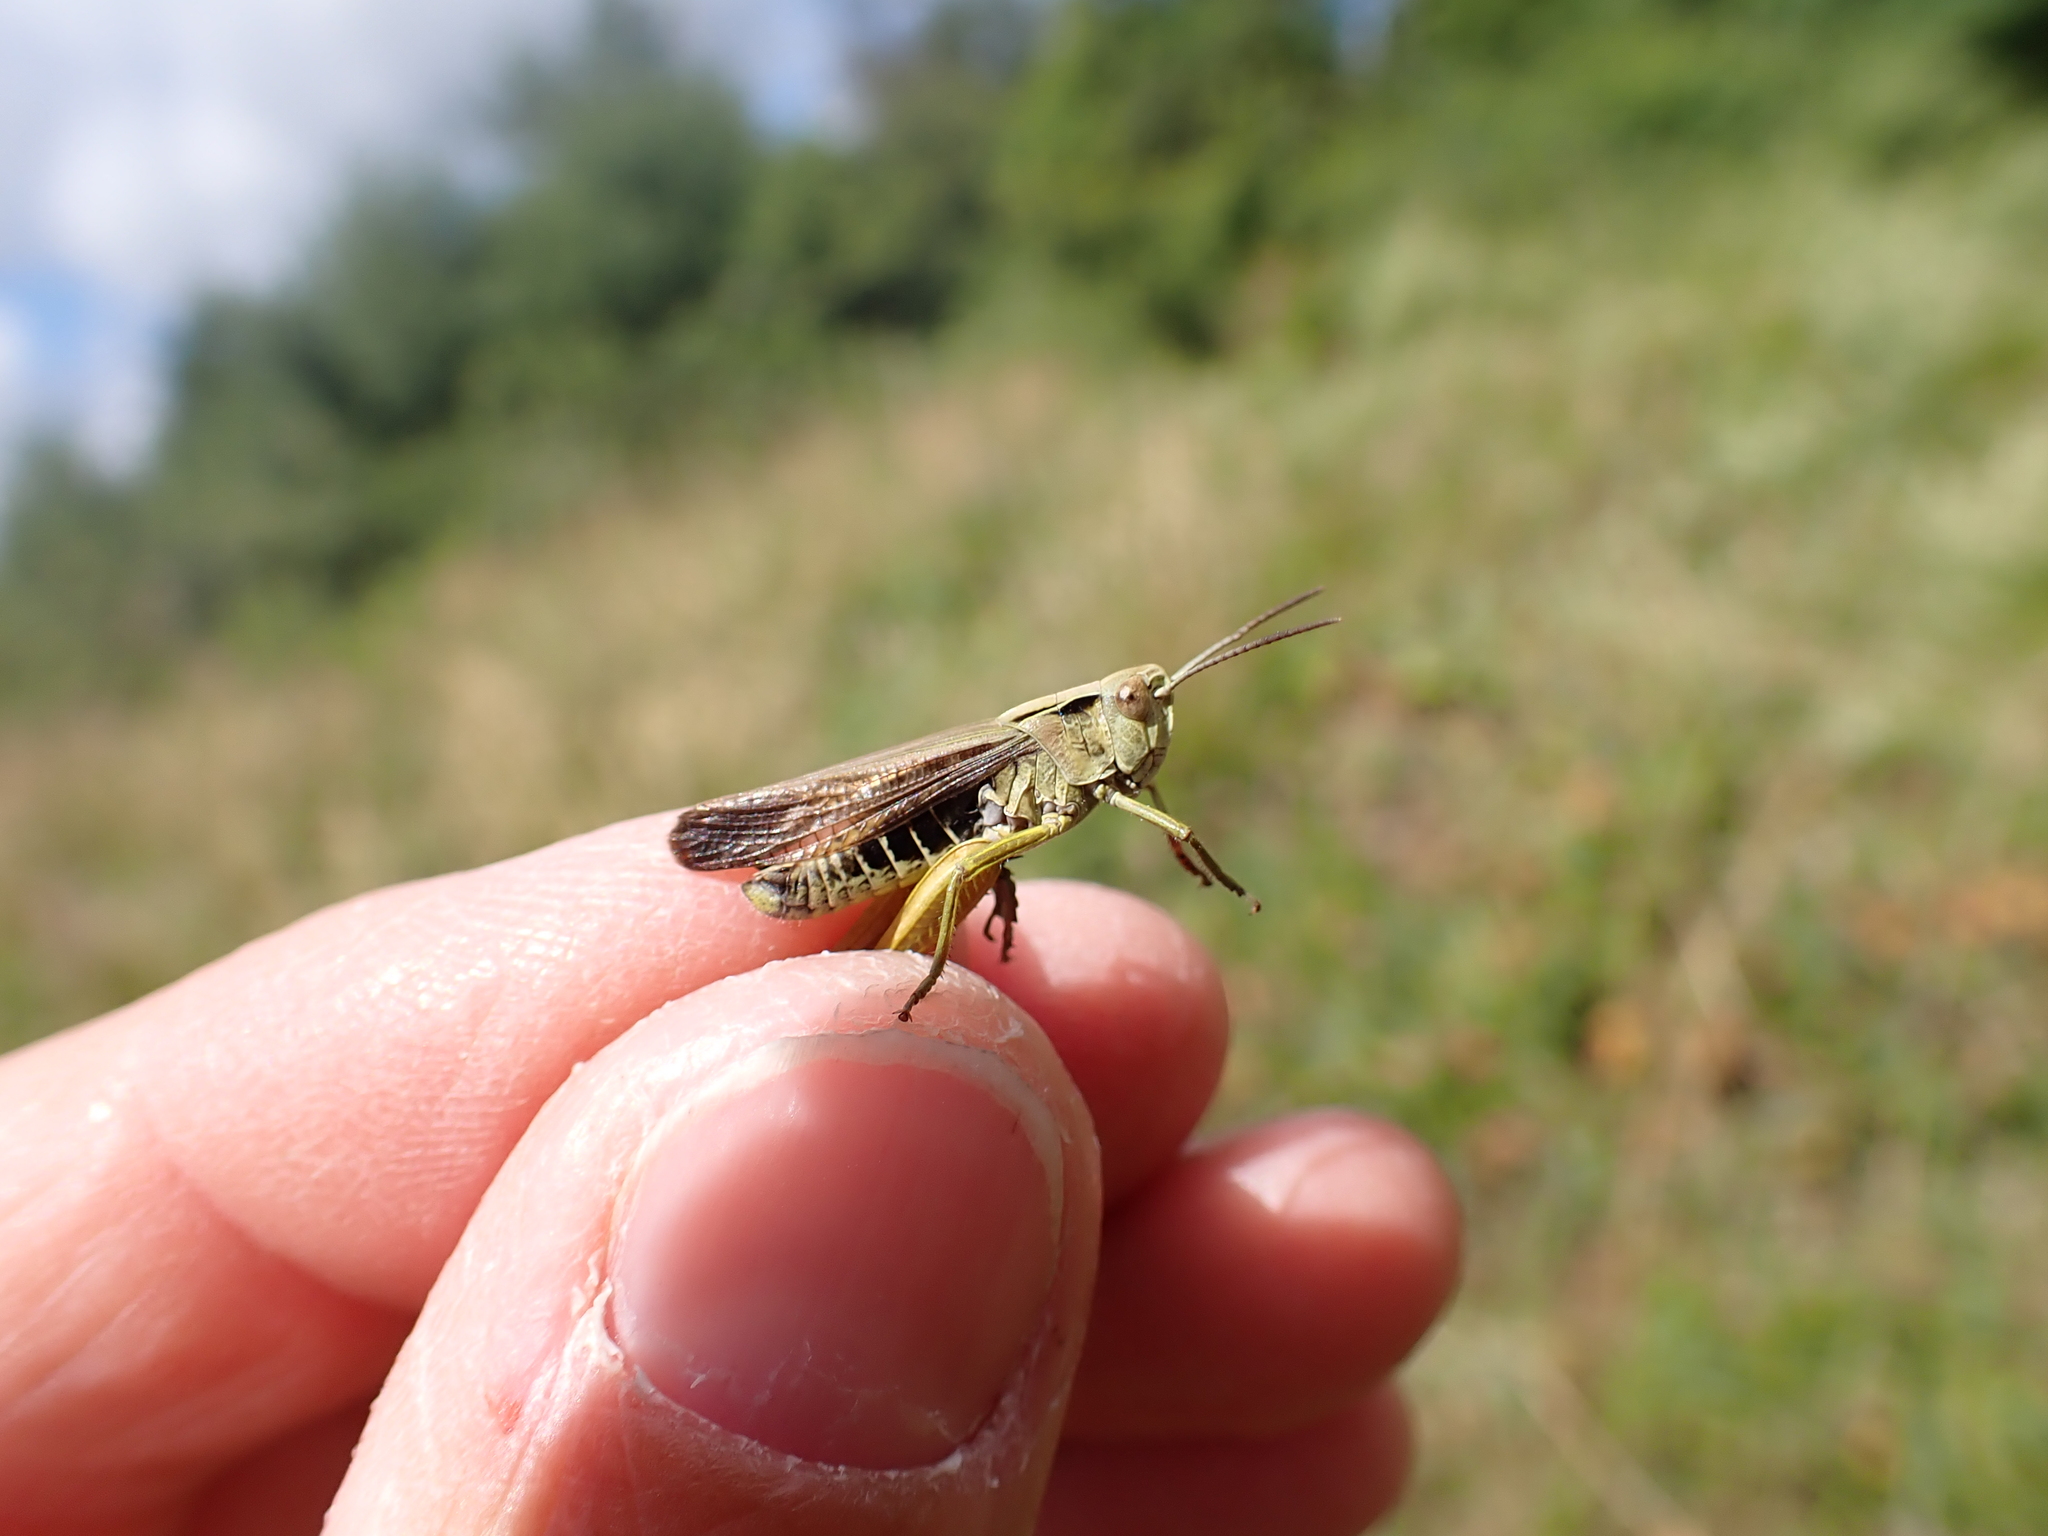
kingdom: Animalia
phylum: Arthropoda
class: Insecta
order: Orthoptera
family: Acrididae
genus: Omocestus
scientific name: Omocestus viridulus
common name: Common green grasshopper
